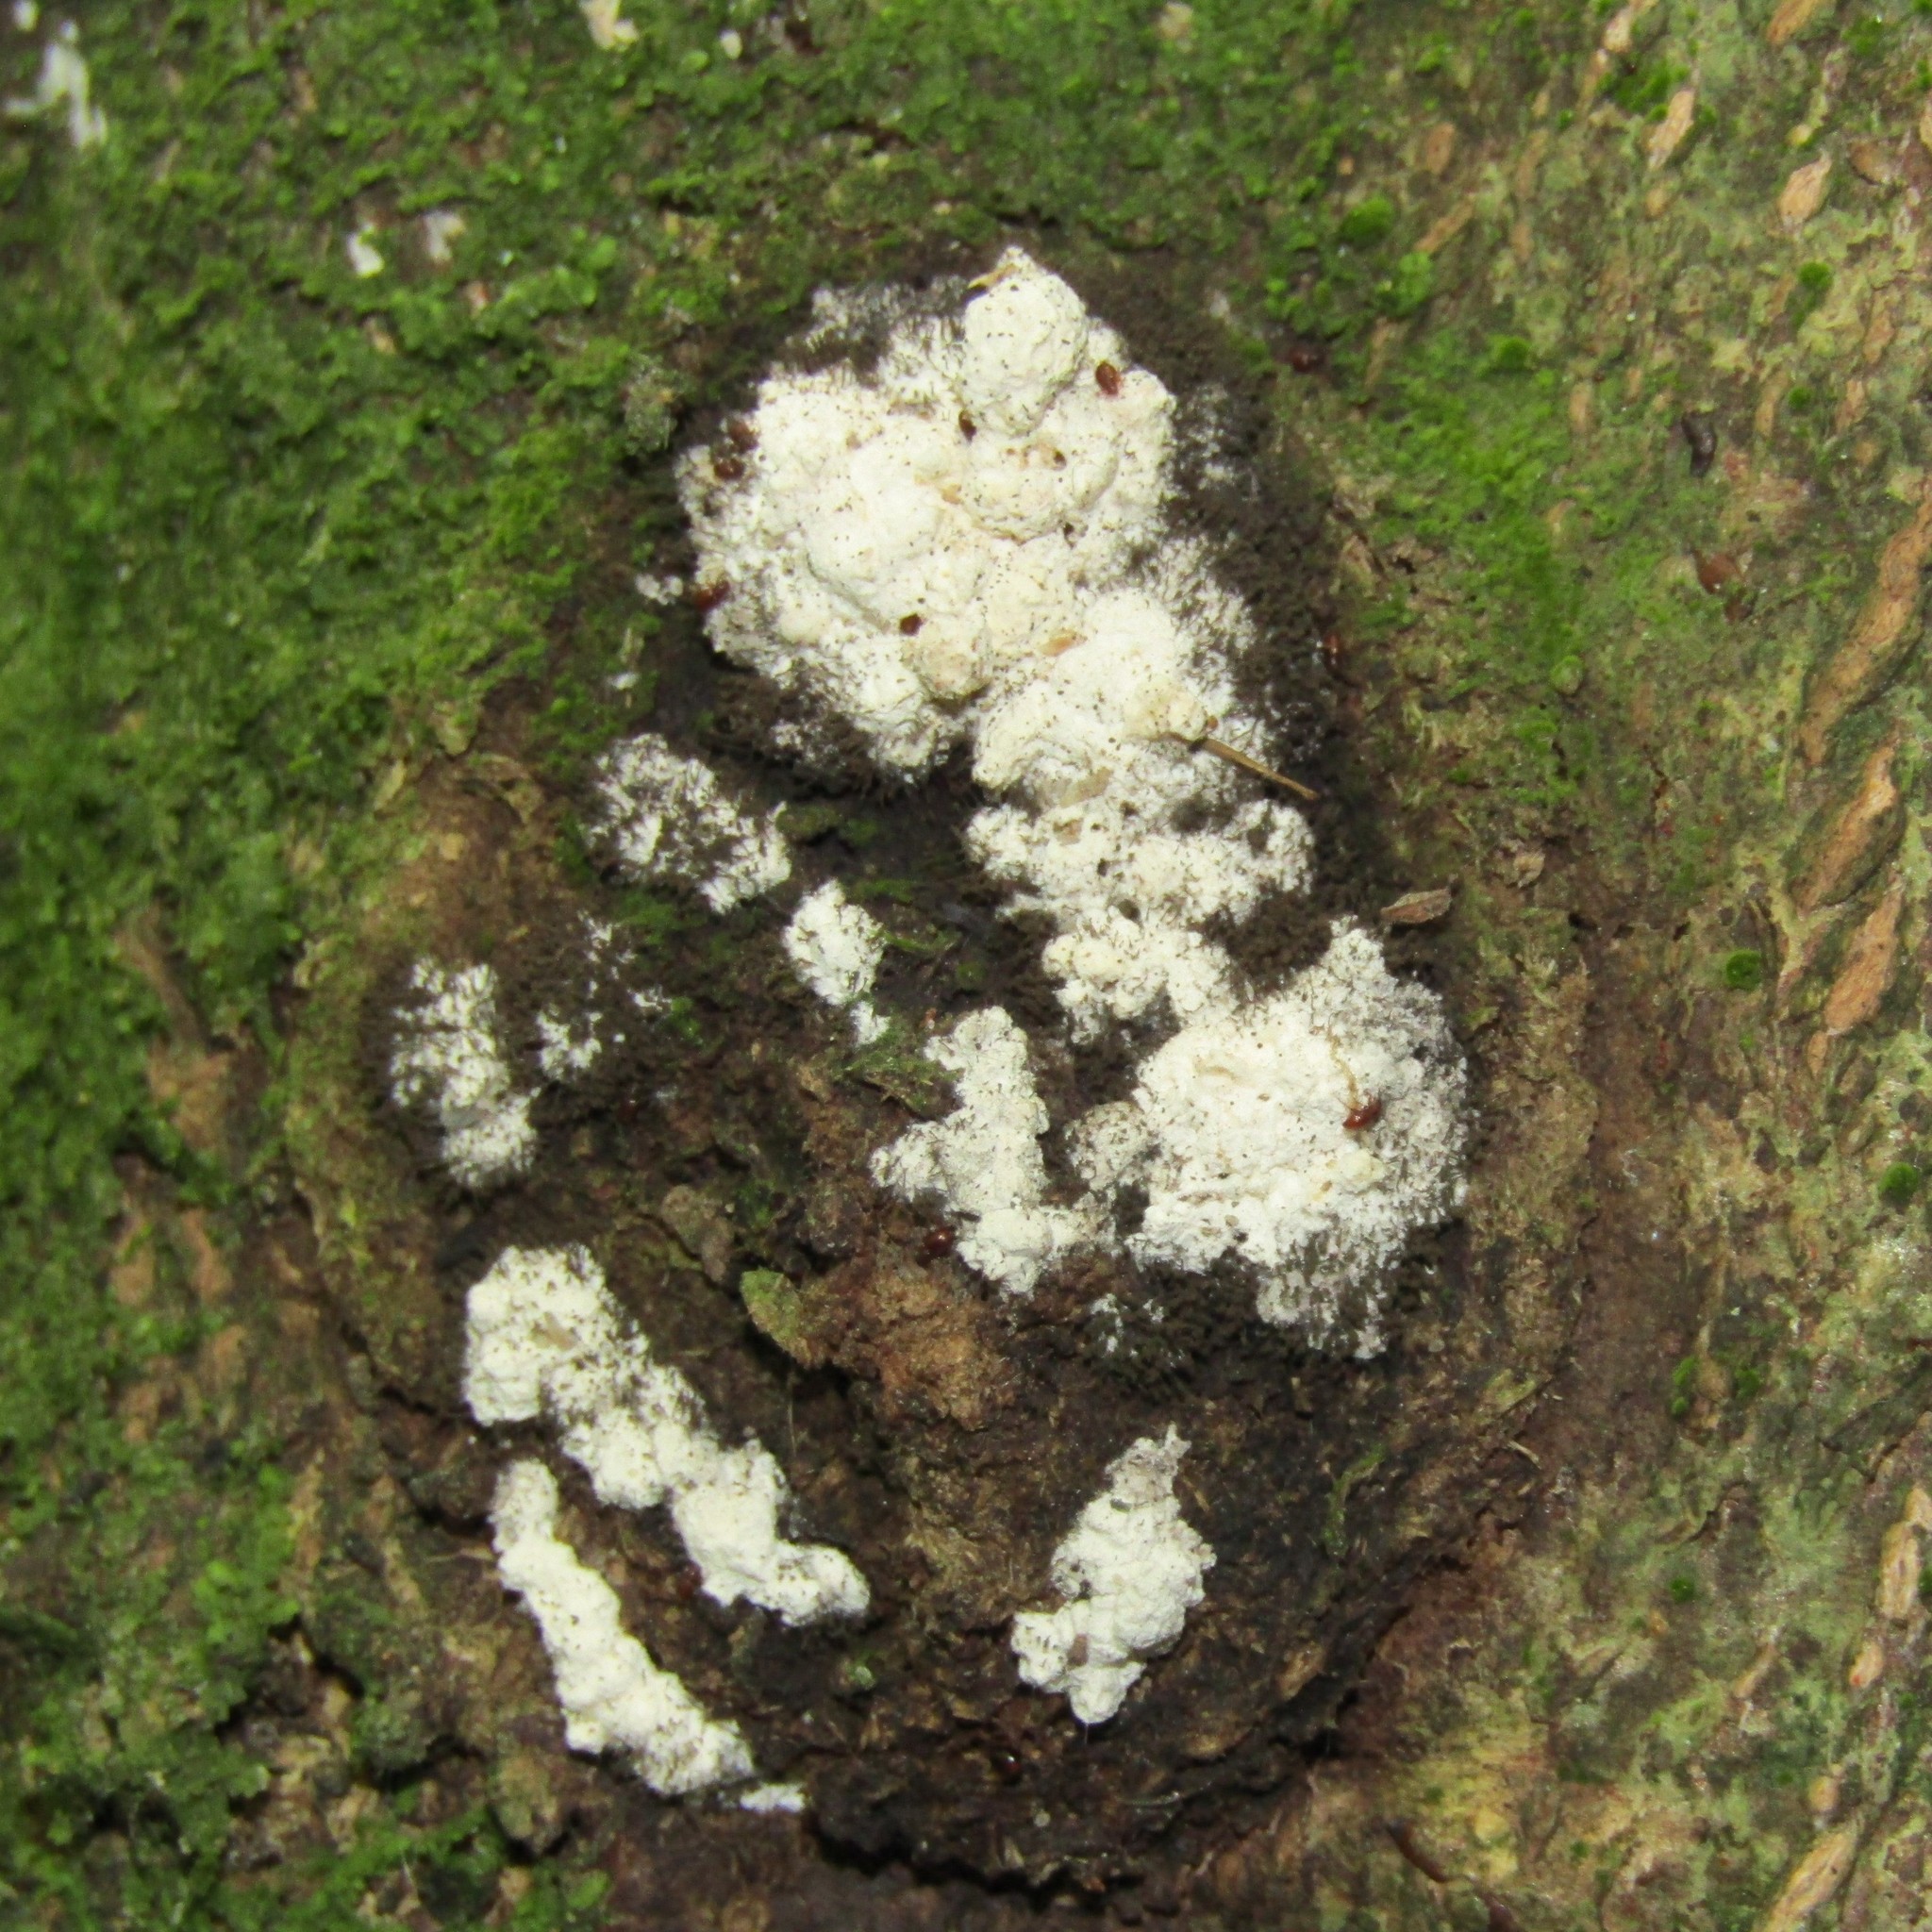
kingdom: Animalia
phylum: Arthropoda
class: Insecta
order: Lepidoptera
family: Hepialidae
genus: Aenetus
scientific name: Aenetus virescens
